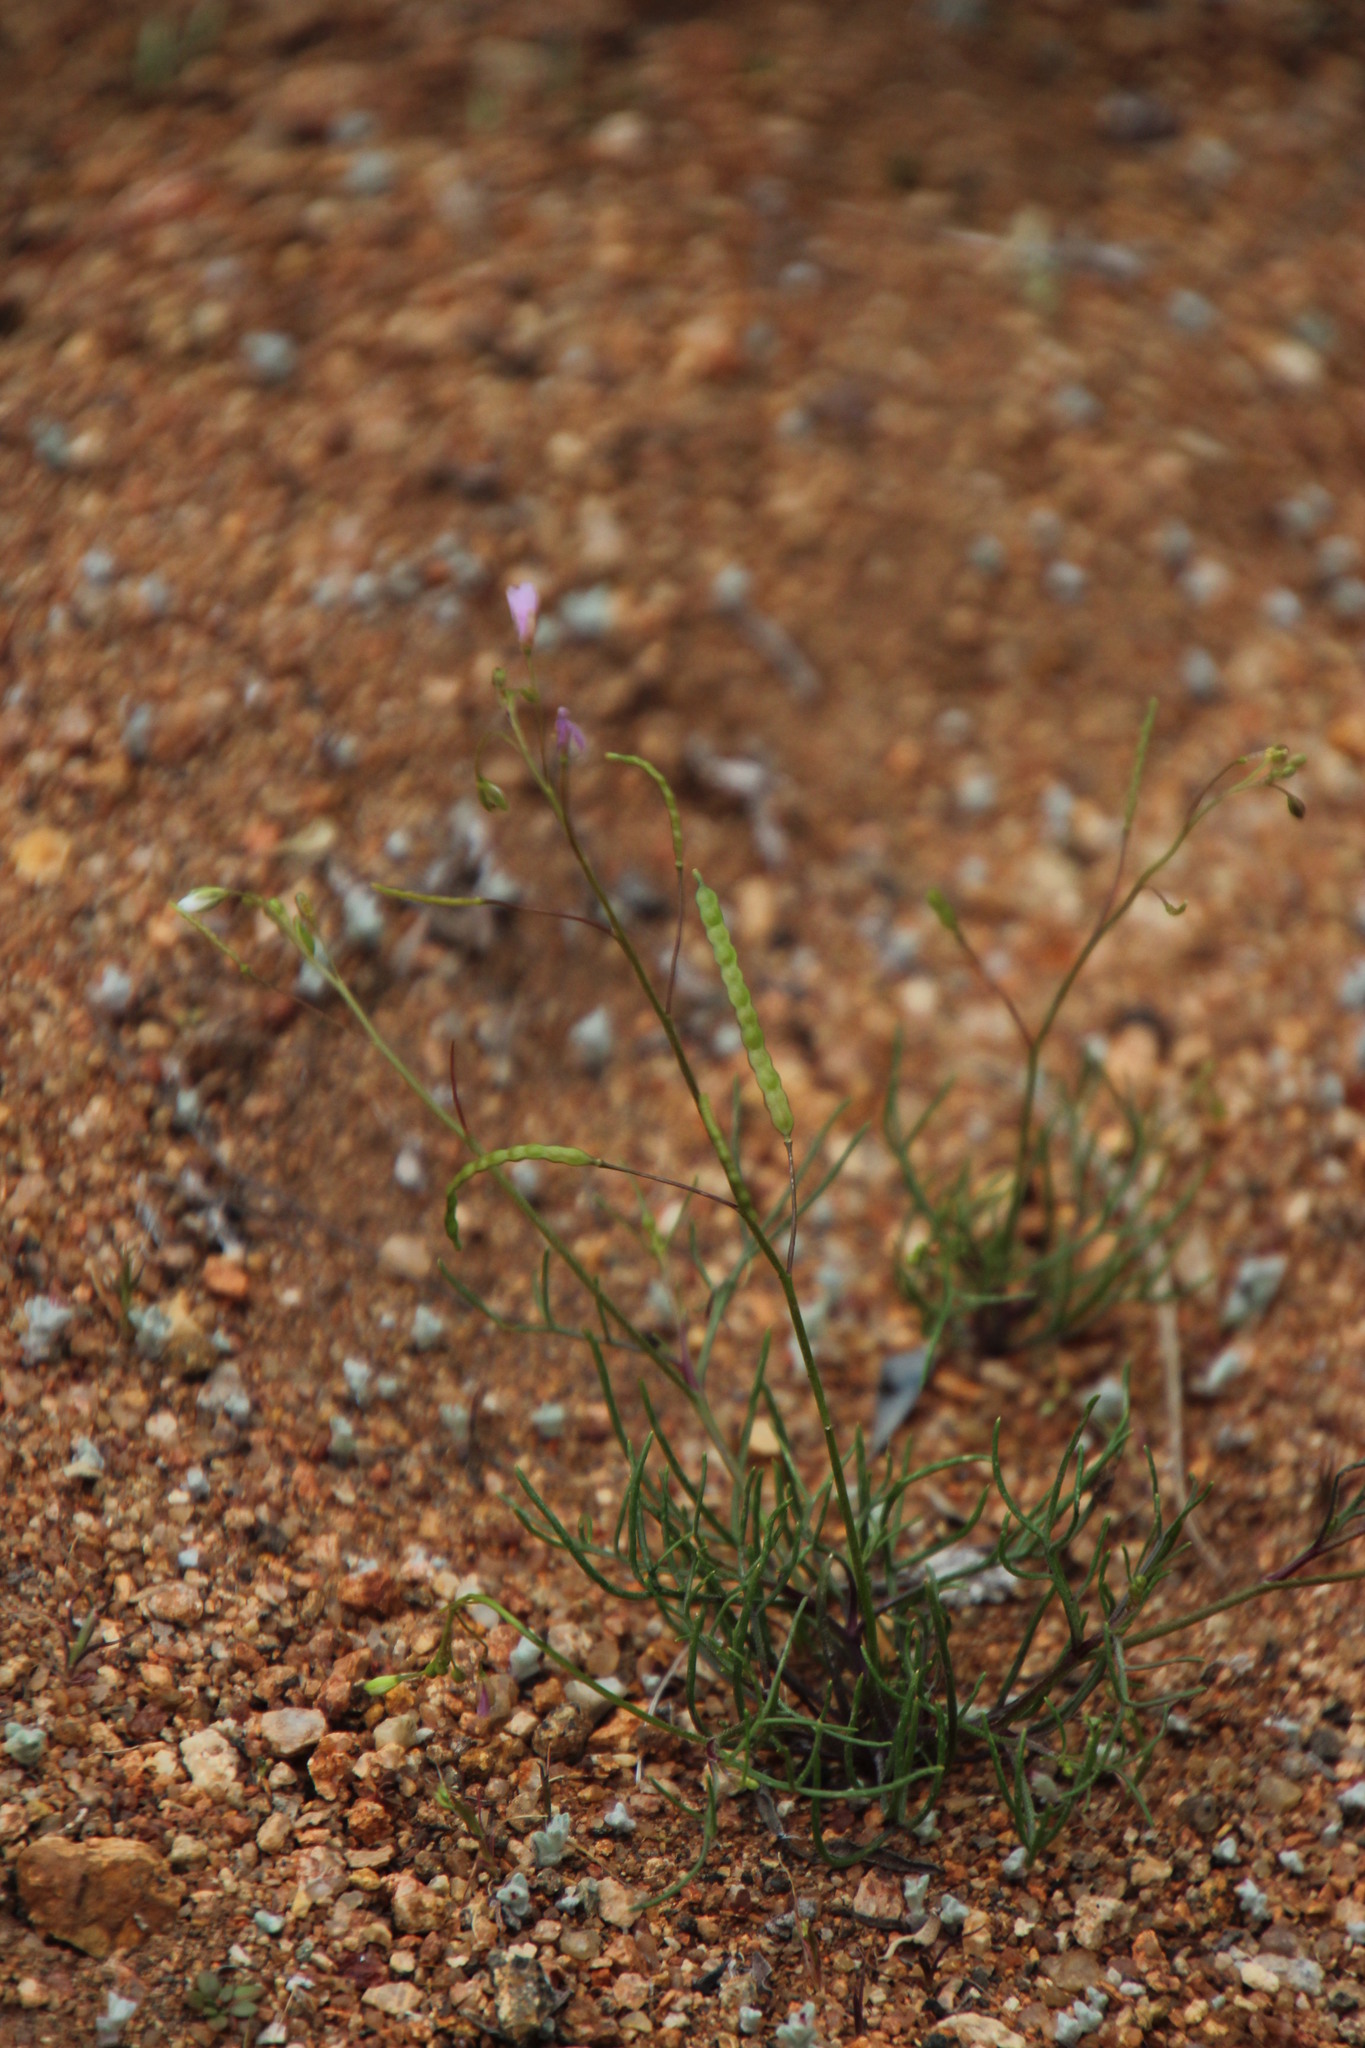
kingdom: Plantae
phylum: Tracheophyta
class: Magnoliopsida
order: Brassicales
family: Brassicaceae
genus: Heliophila
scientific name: Heliophila variabilis
